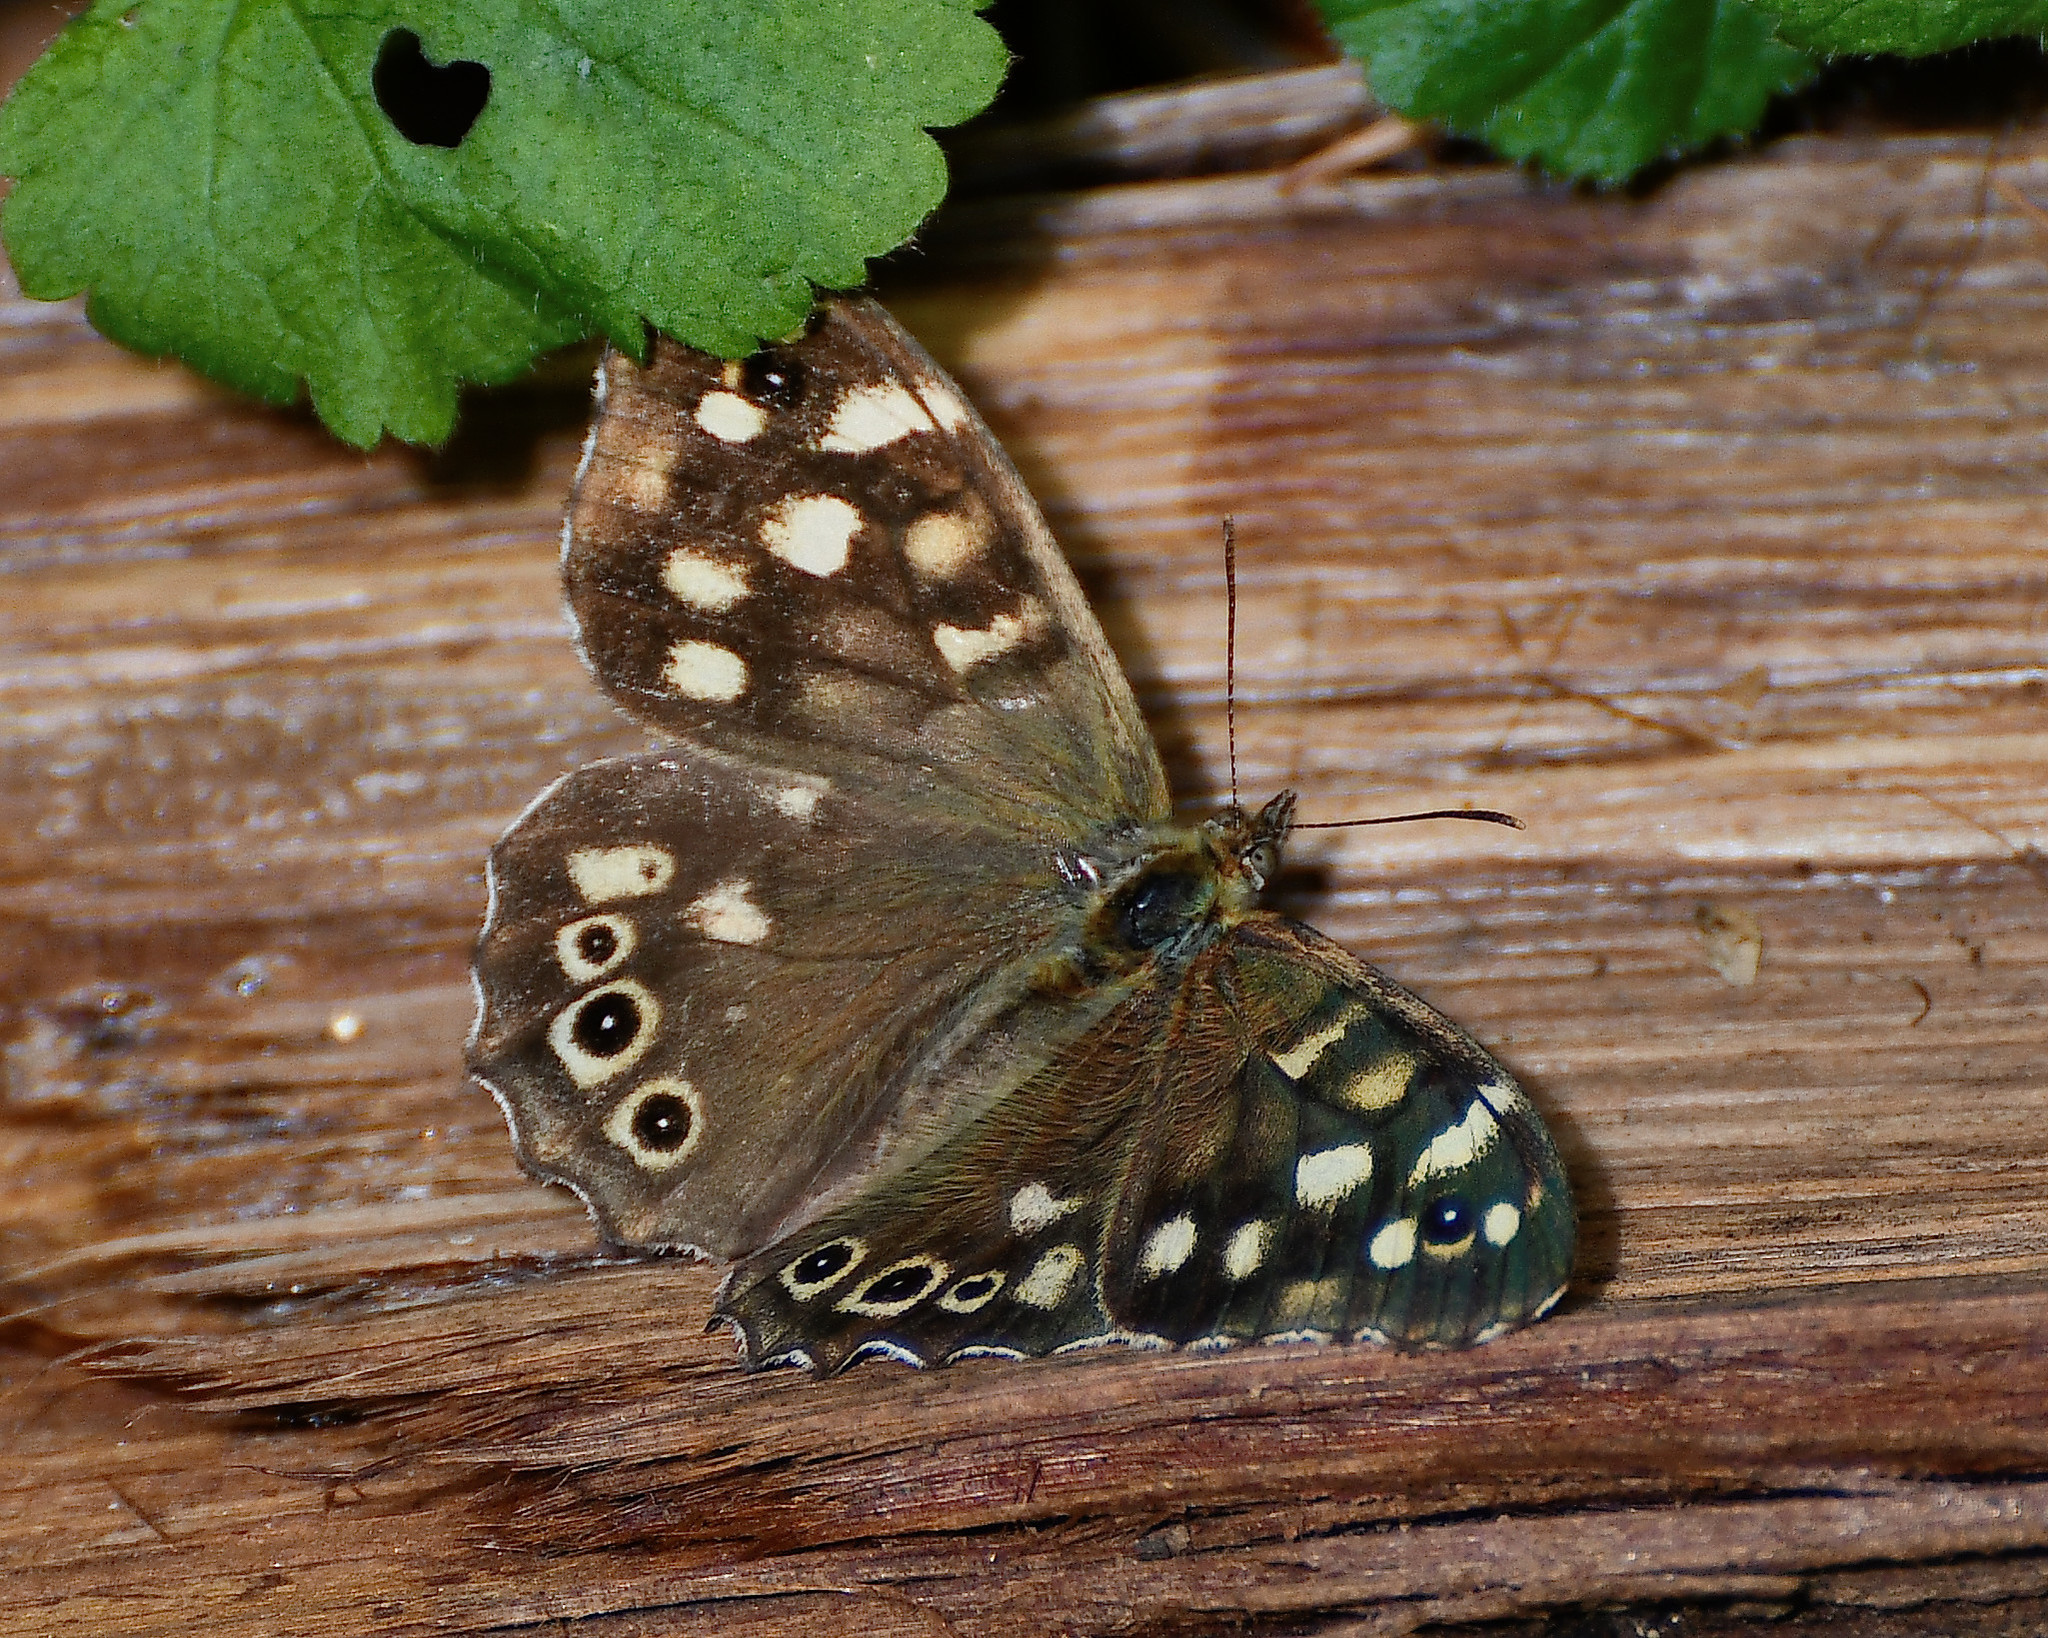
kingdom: Animalia
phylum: Arthropoda
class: Insecta
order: Lepidoptera
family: Nymphalidae
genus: Pararge
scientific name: Pararge aegeria
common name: Speckled wood
